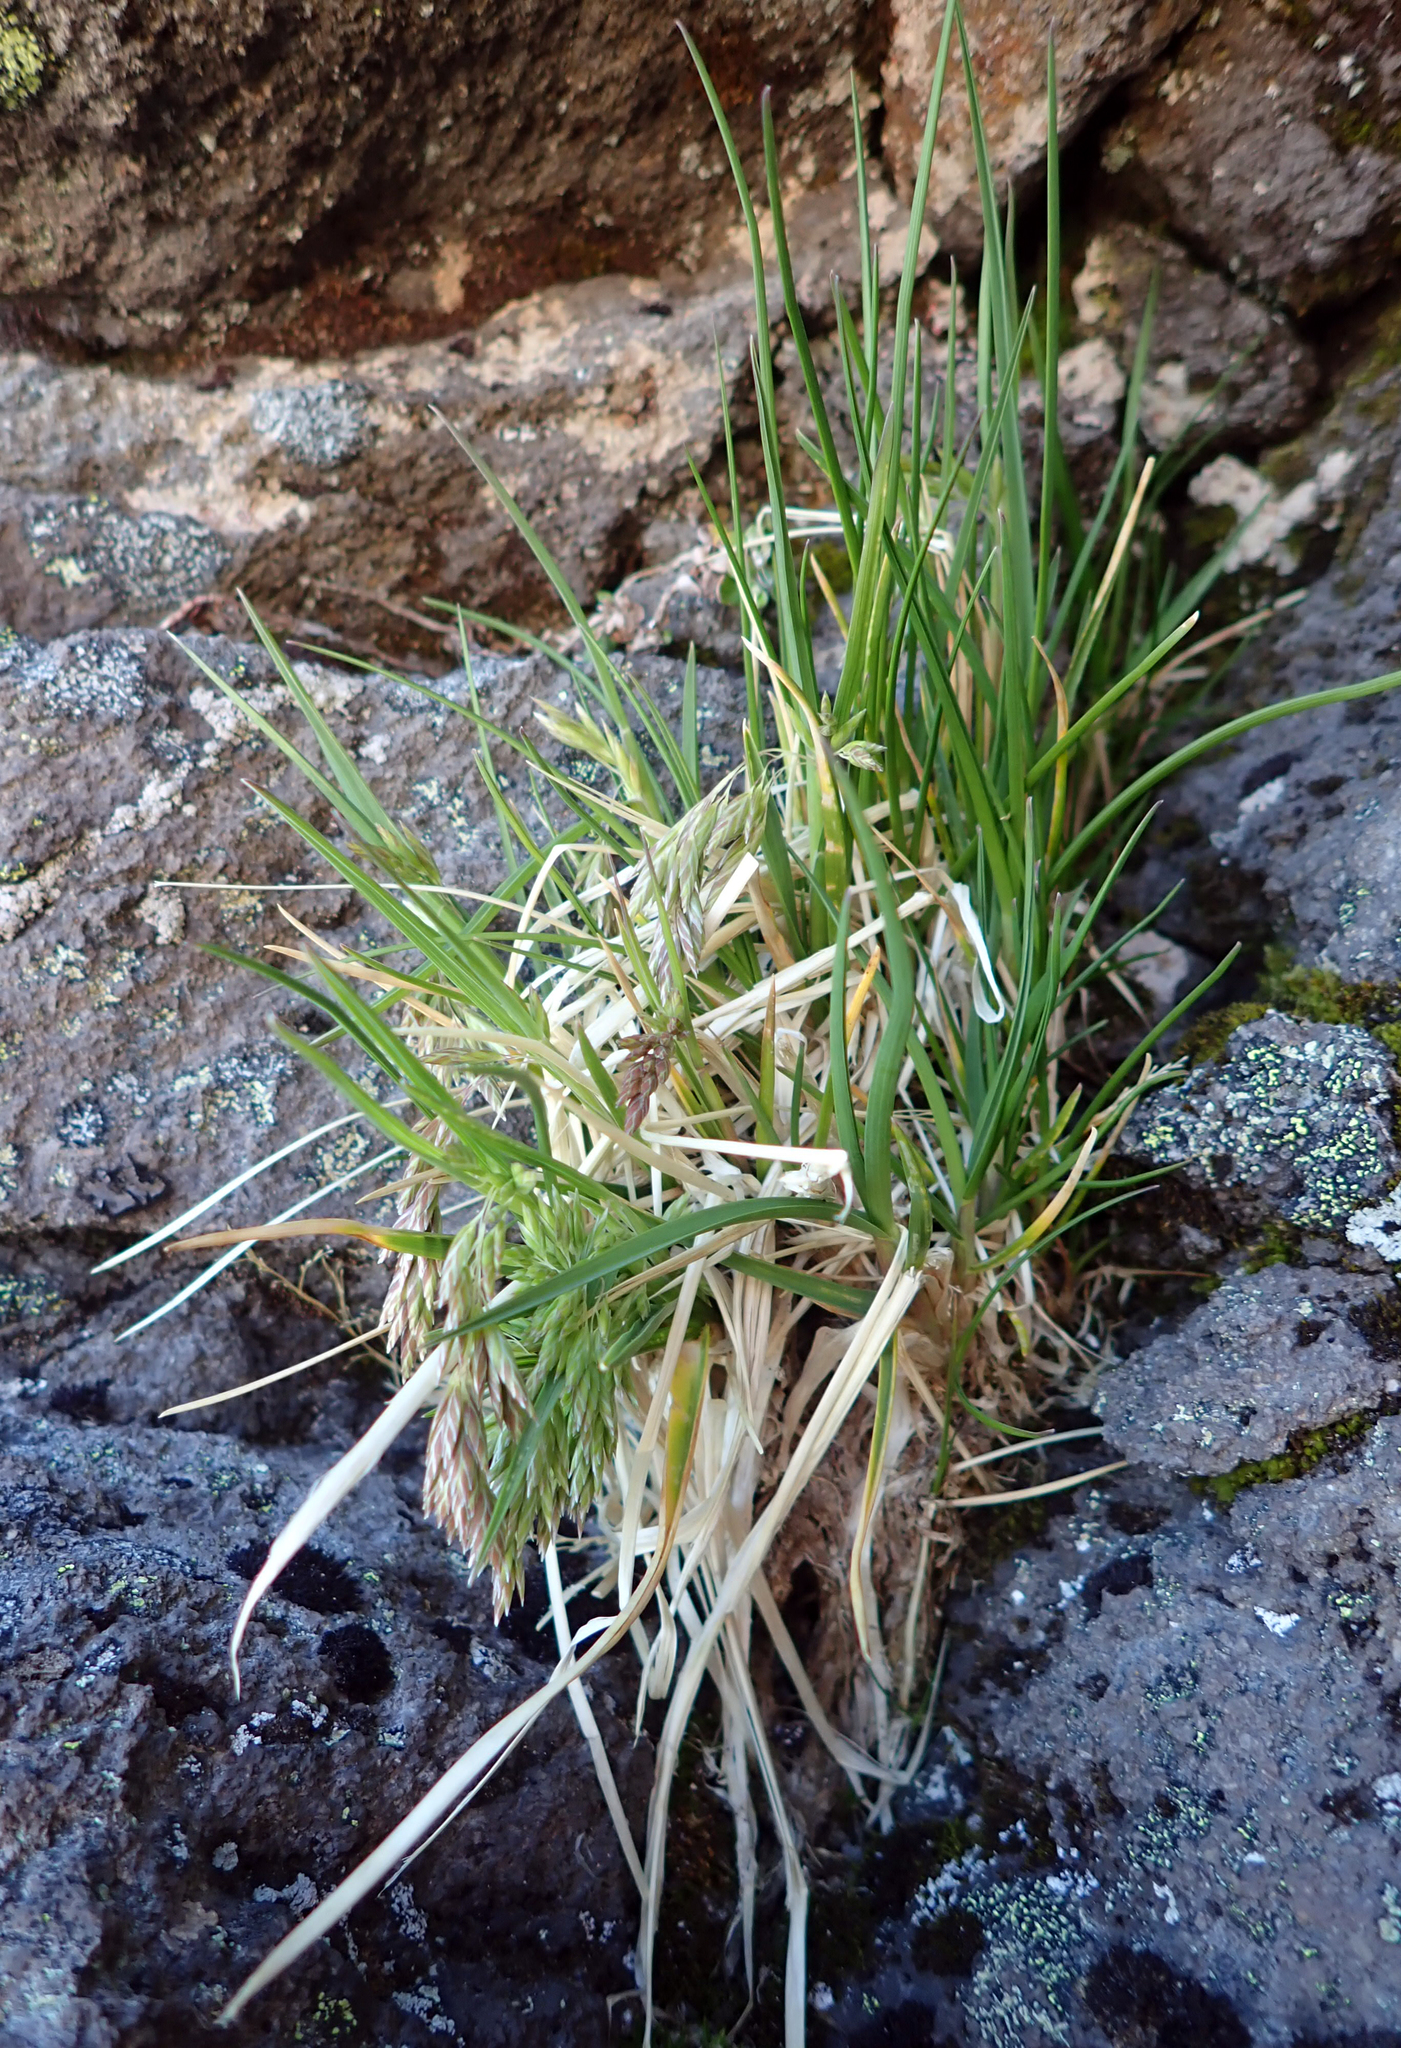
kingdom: Plantae
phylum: Tracheophyta
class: Liliopsida
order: Poales
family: Poaceae
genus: Poa
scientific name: Poa novae-zelandiae
